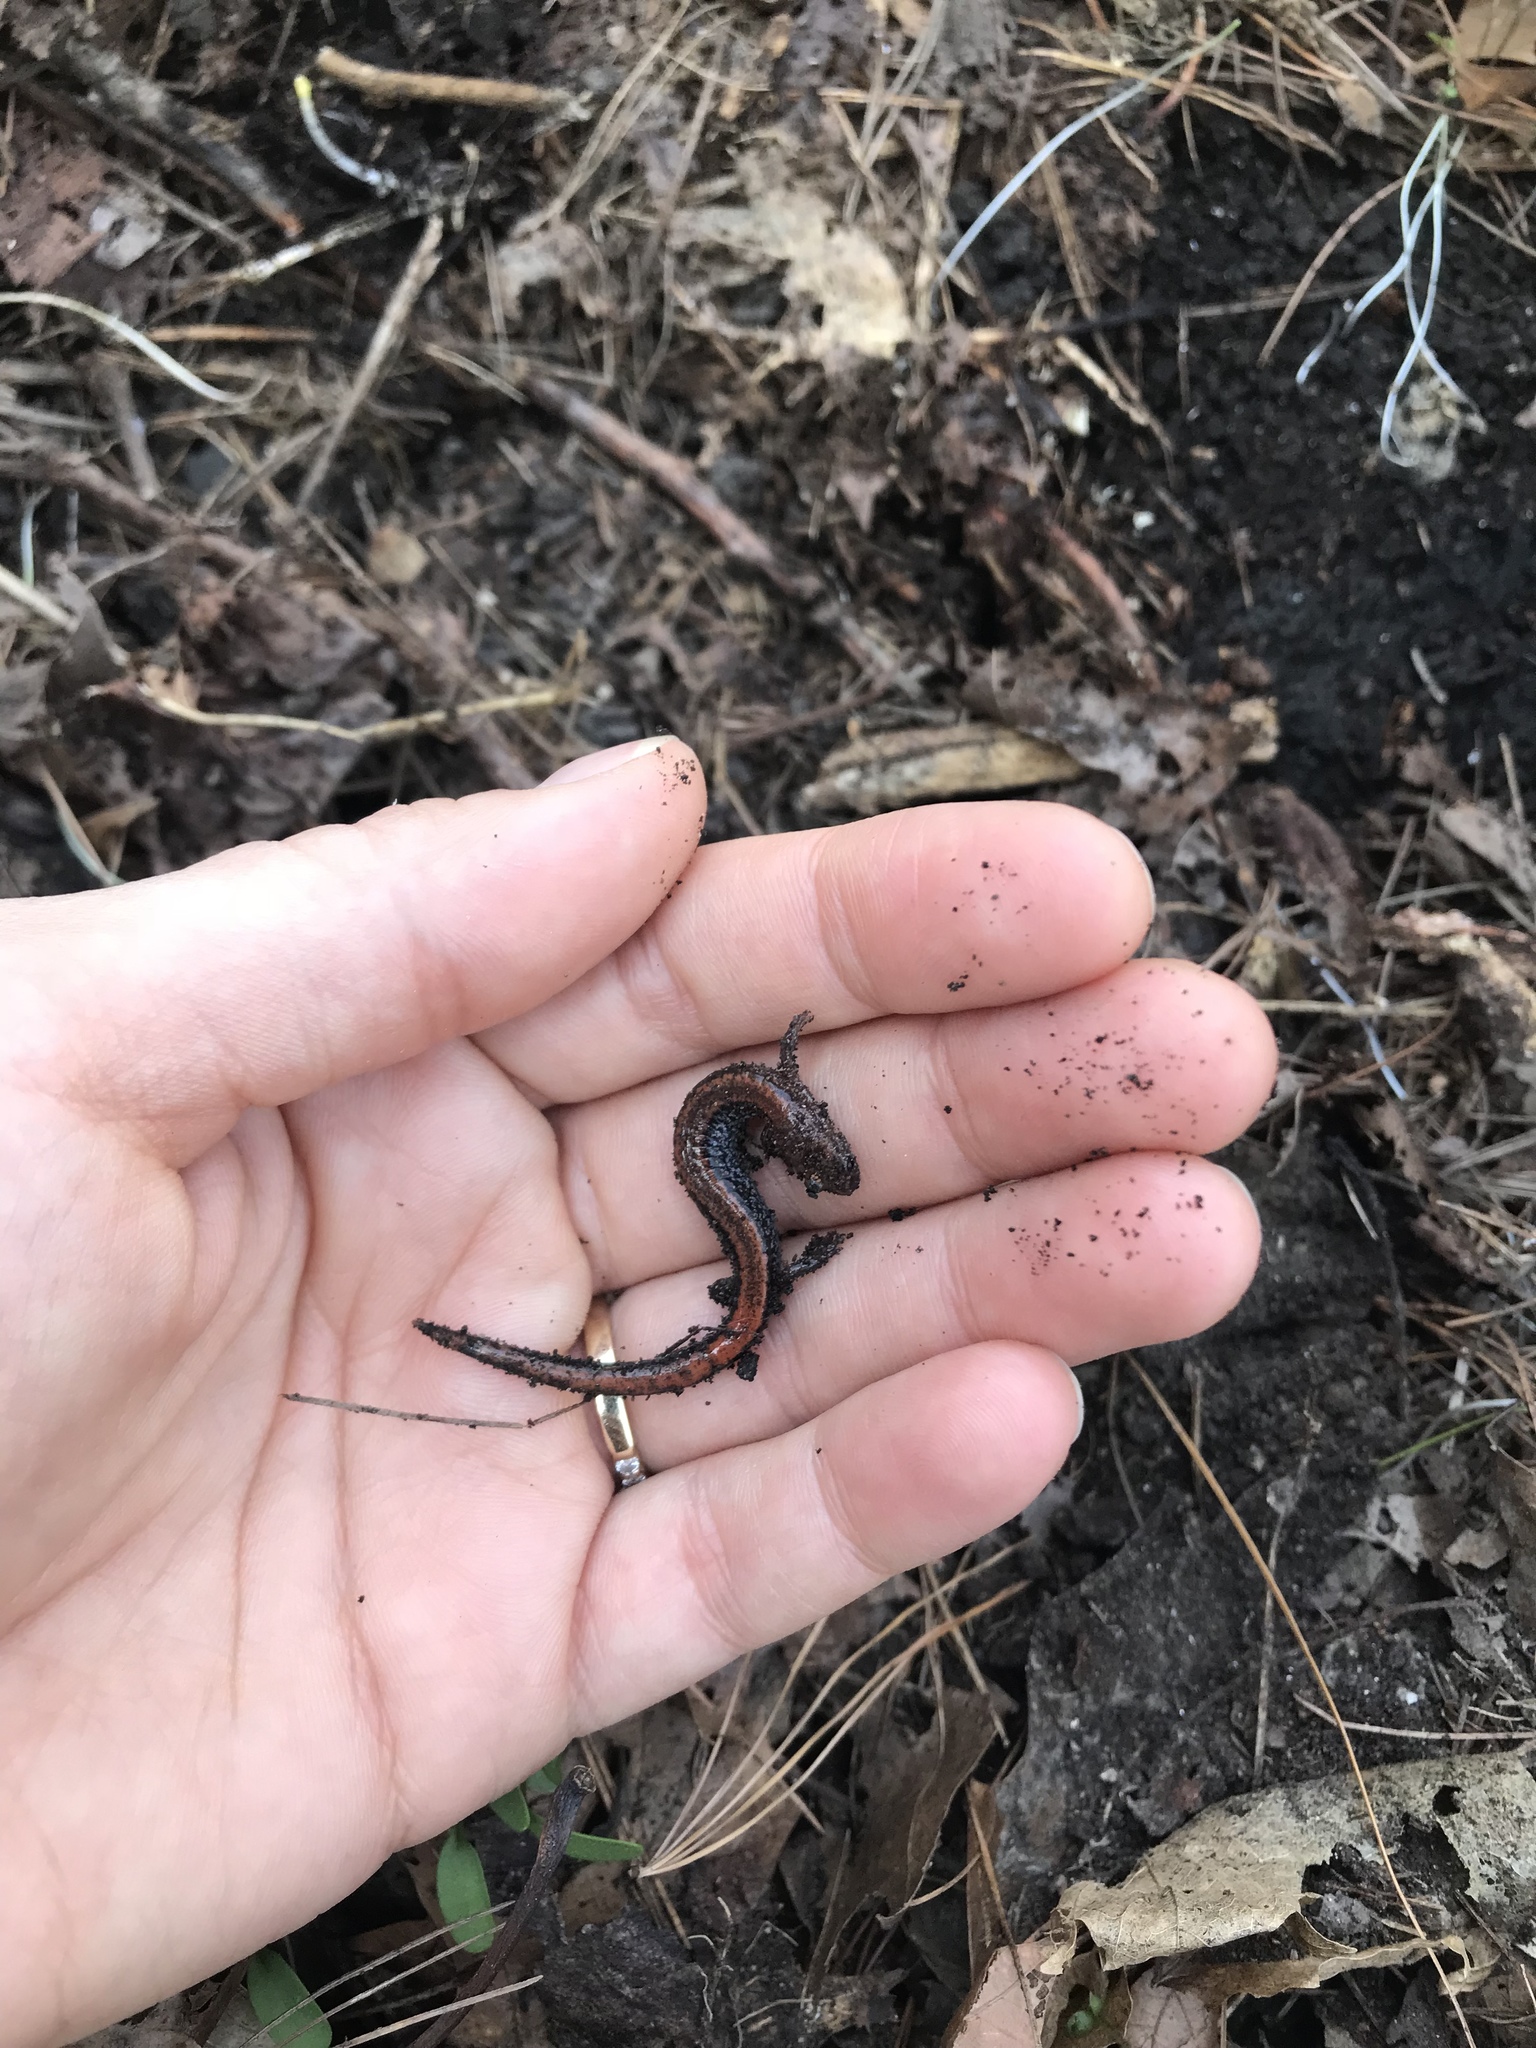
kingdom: Animalia
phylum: Chordata
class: Amphibia
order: Caudata
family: Plethodontidae
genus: Plethodon
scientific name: Plethodon cinereus
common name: Redback salamander
